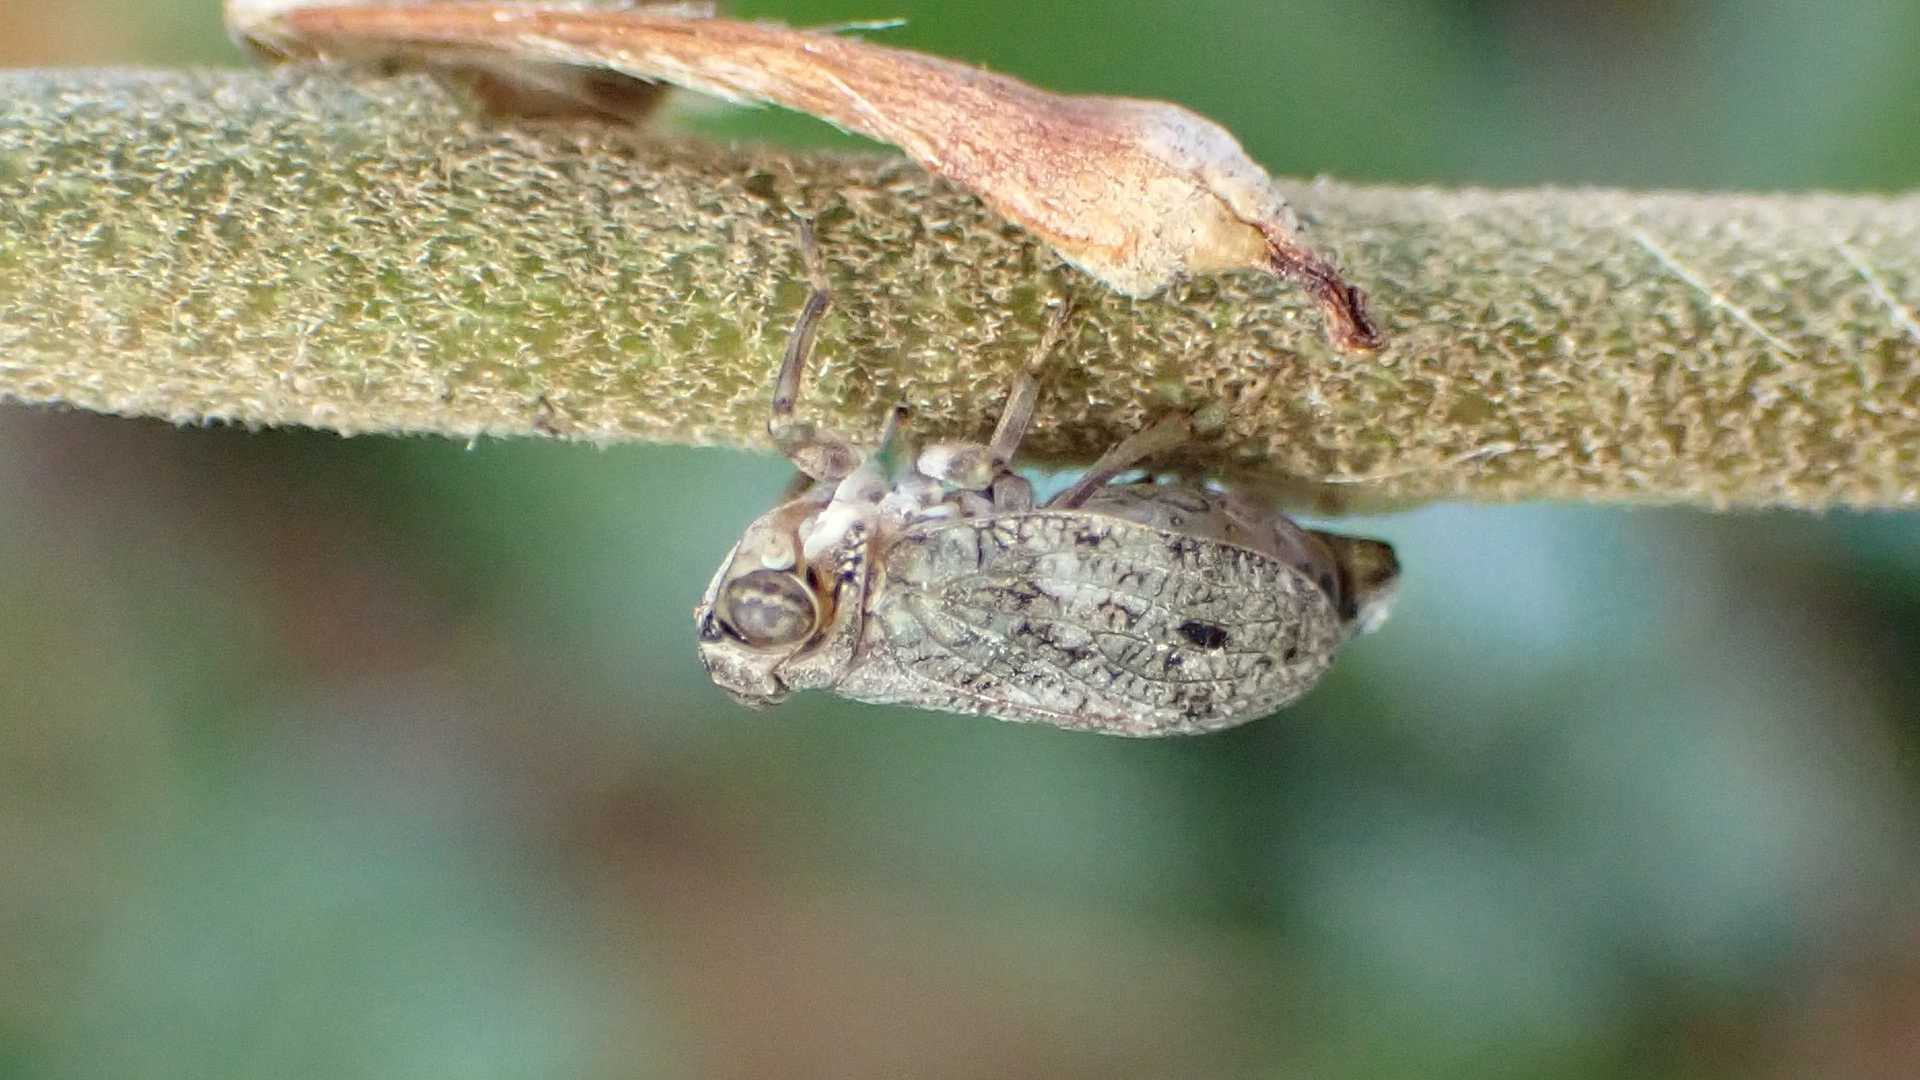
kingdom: Animalia
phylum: Arthropoda
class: Insecta
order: Hemiptera
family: Issidae
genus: Issus
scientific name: Issus coleoptratus
